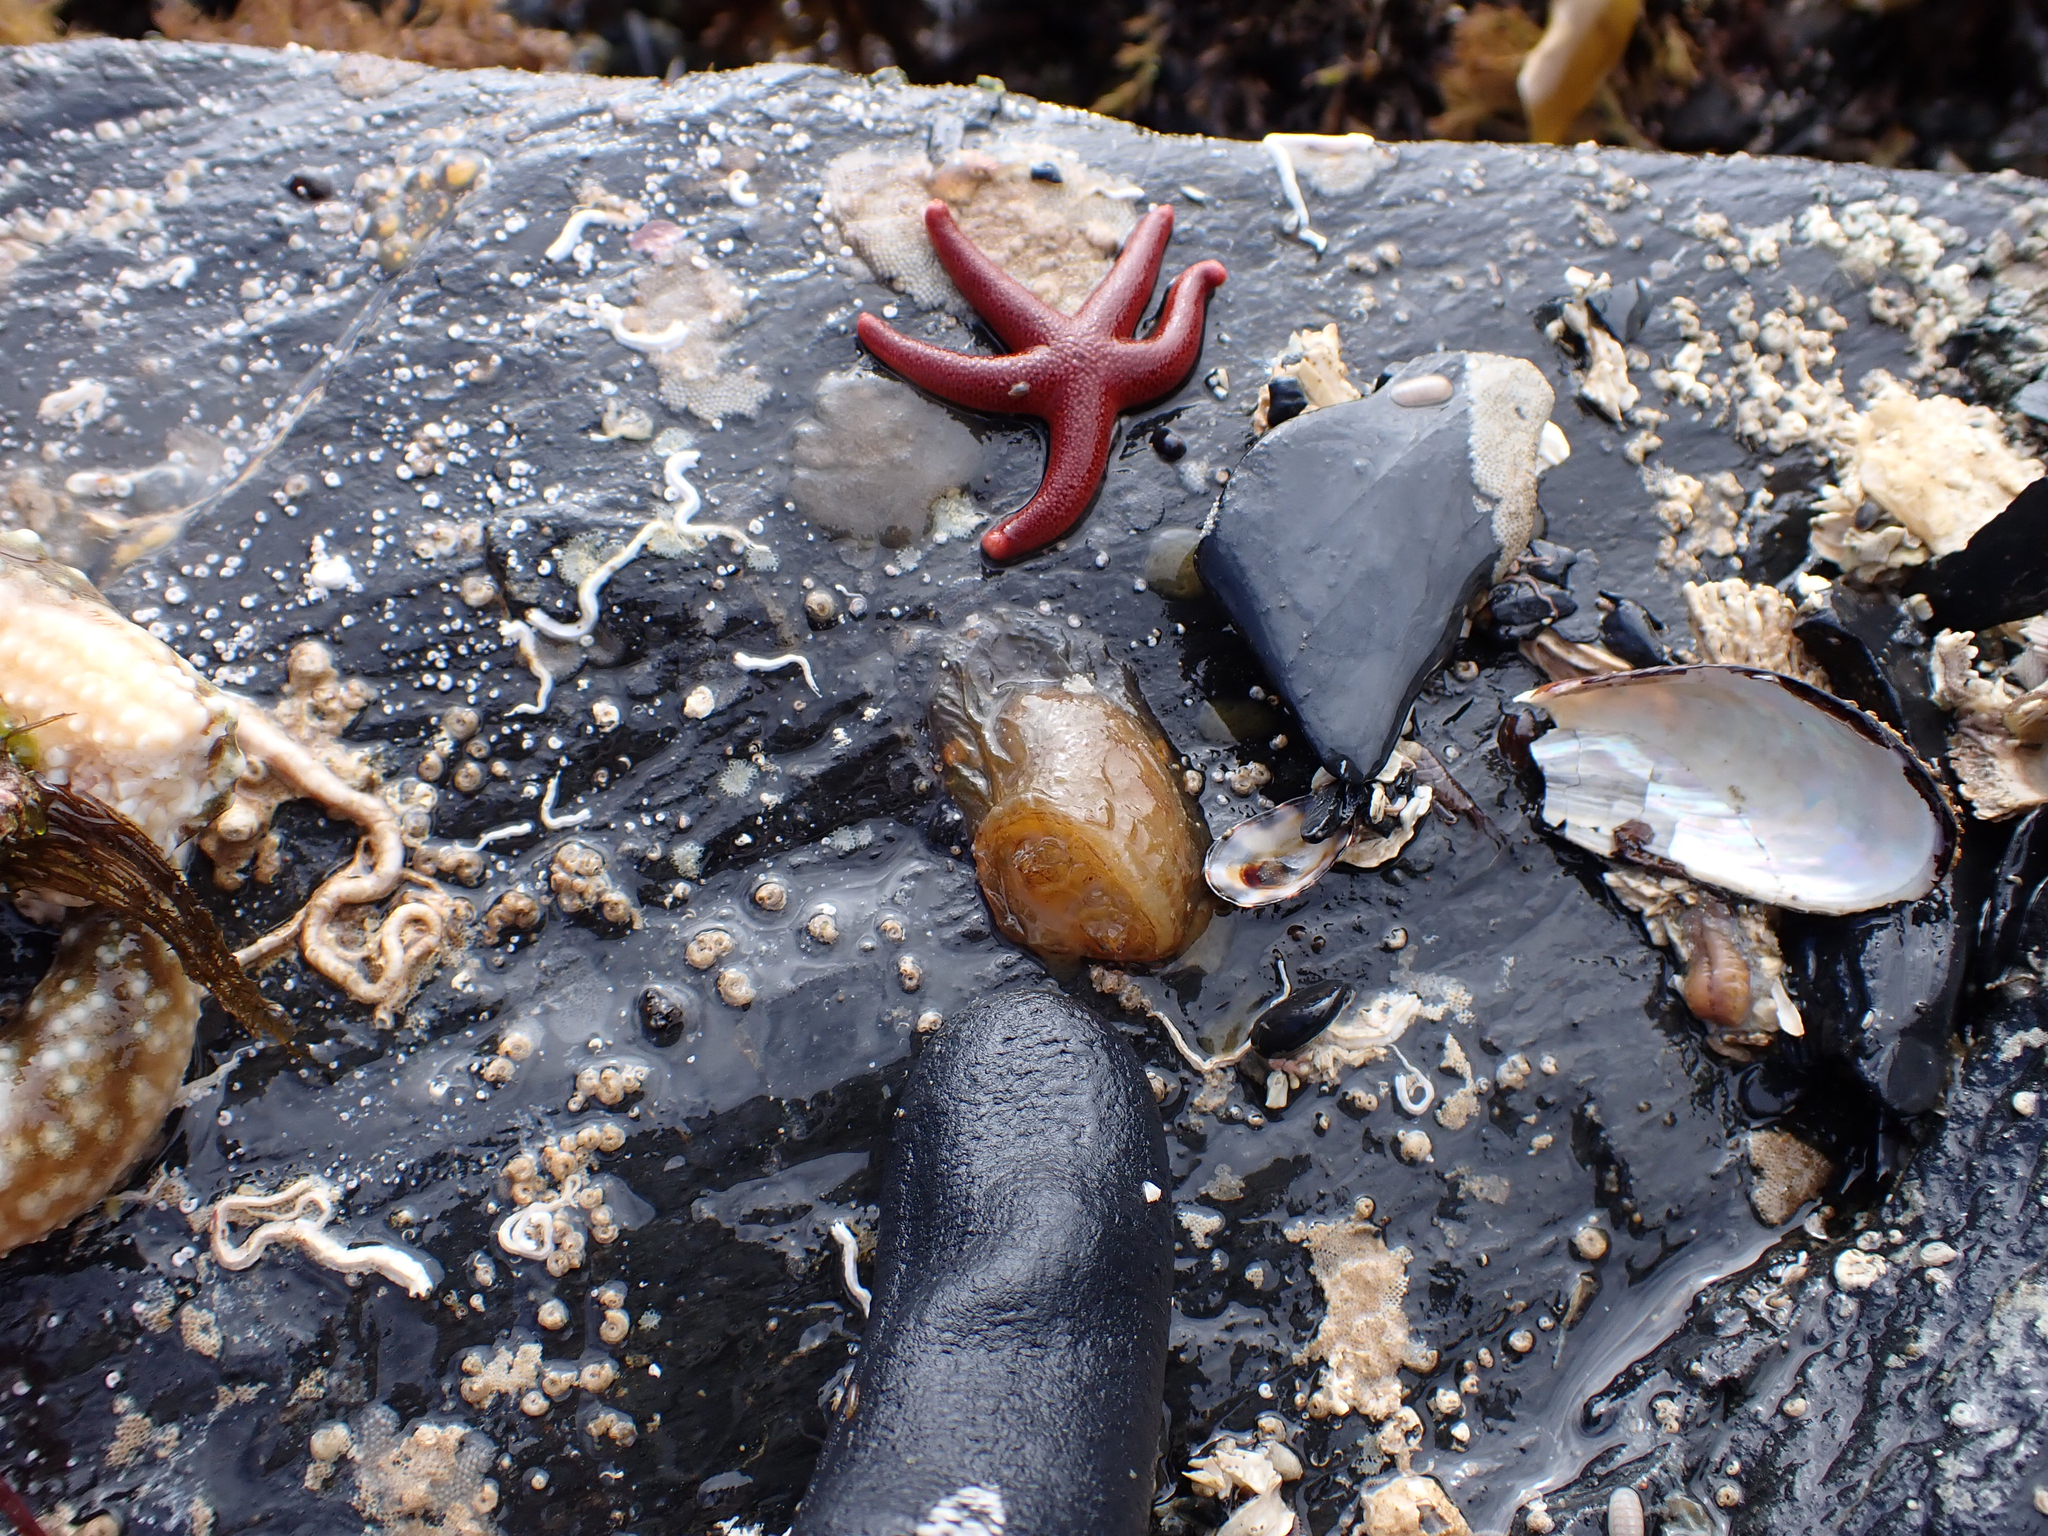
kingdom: Animalia
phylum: Chordata
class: Ascidiacea
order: Phlebobranchia
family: Corellidae
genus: Chelyosoma
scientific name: Chelyosoma productum
